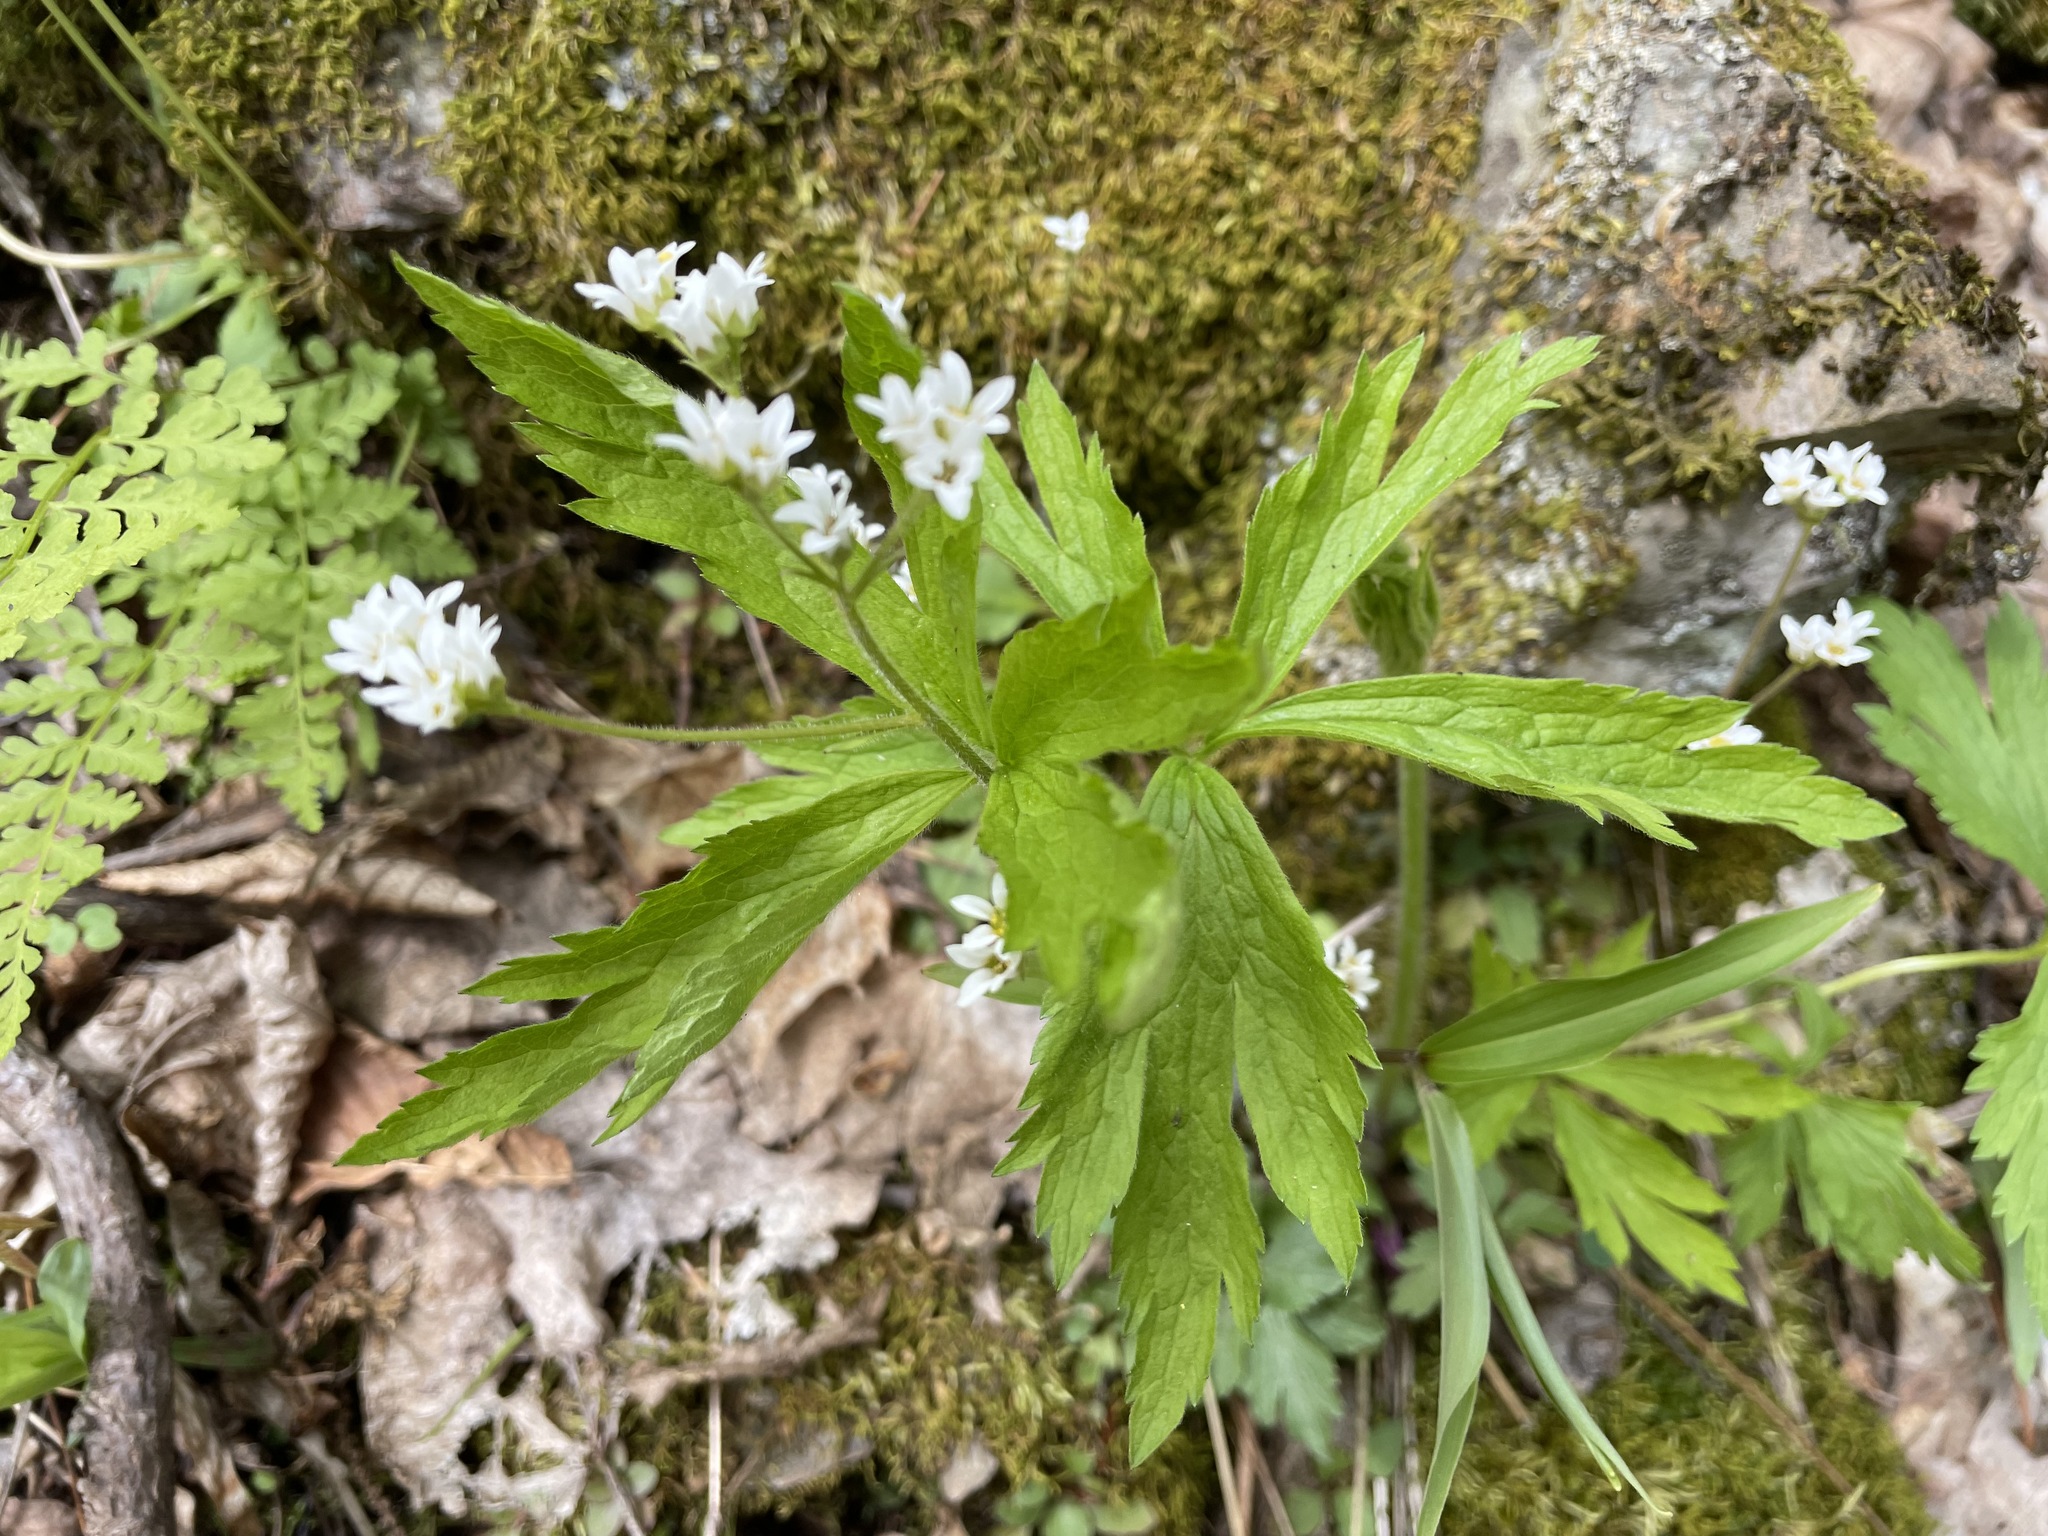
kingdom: Plantae
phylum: Tracheophyta
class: Magnoliopsida
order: Saxifragales
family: Saxifragaceae
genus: Micranthes
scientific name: Micranthes virginiensis
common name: Early saxifrage
